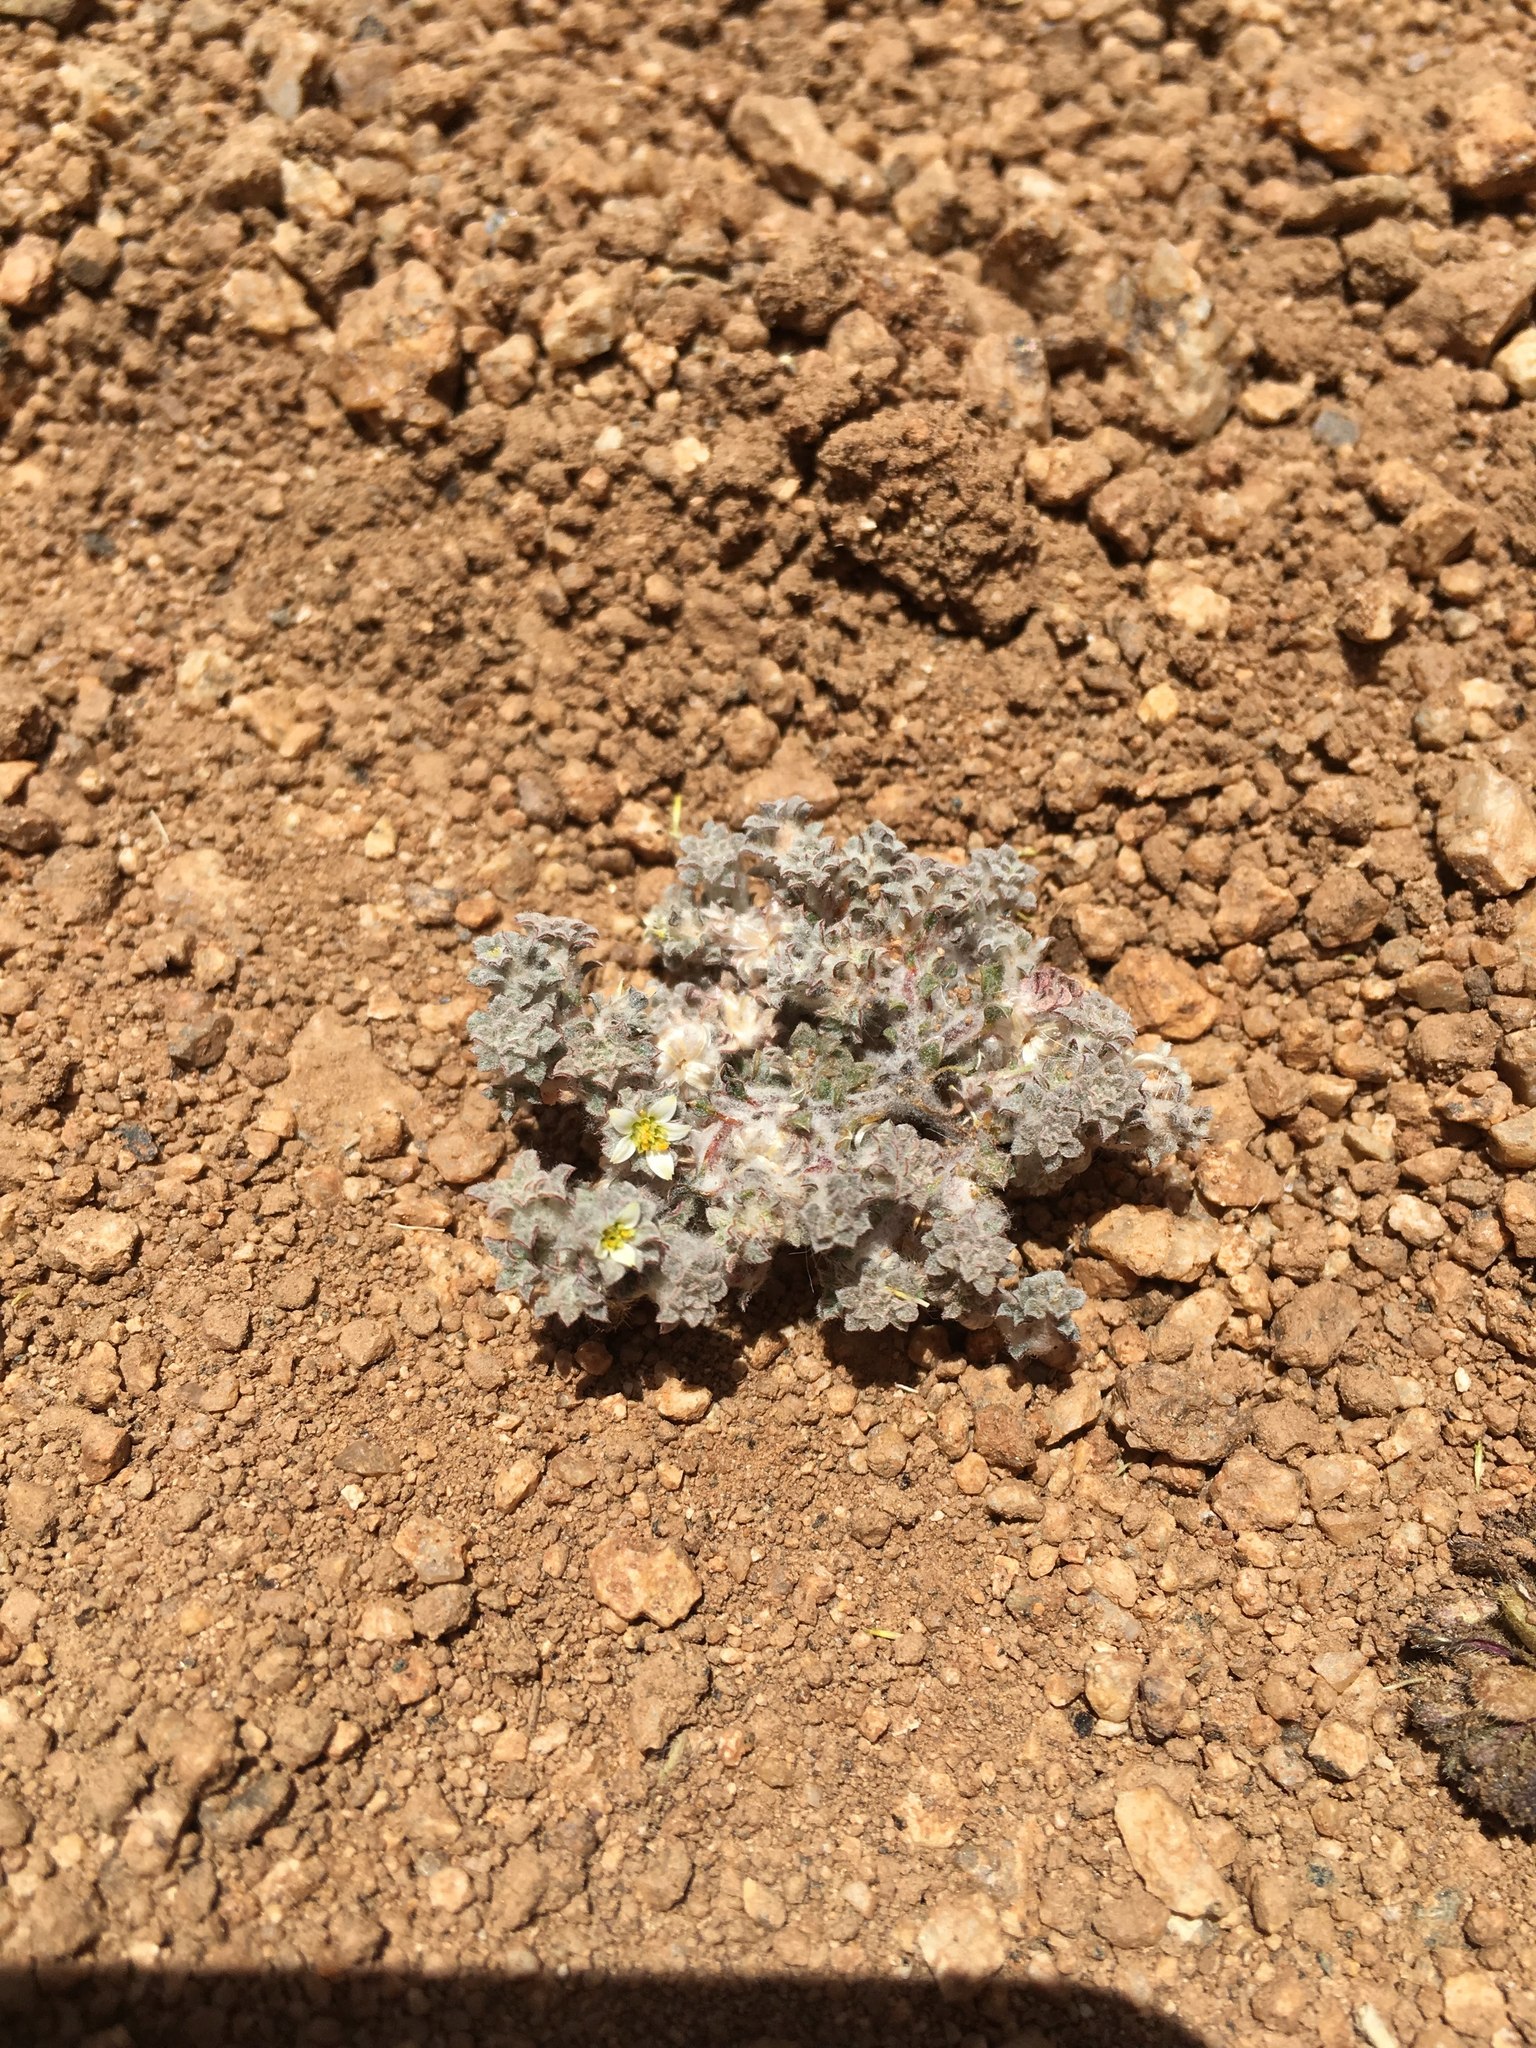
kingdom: Plantae
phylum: Tracheophyta
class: Magnoliopsida
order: Asterales
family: Asteraceae
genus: Oriastrum
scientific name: Oriastrum gnaphalioides
